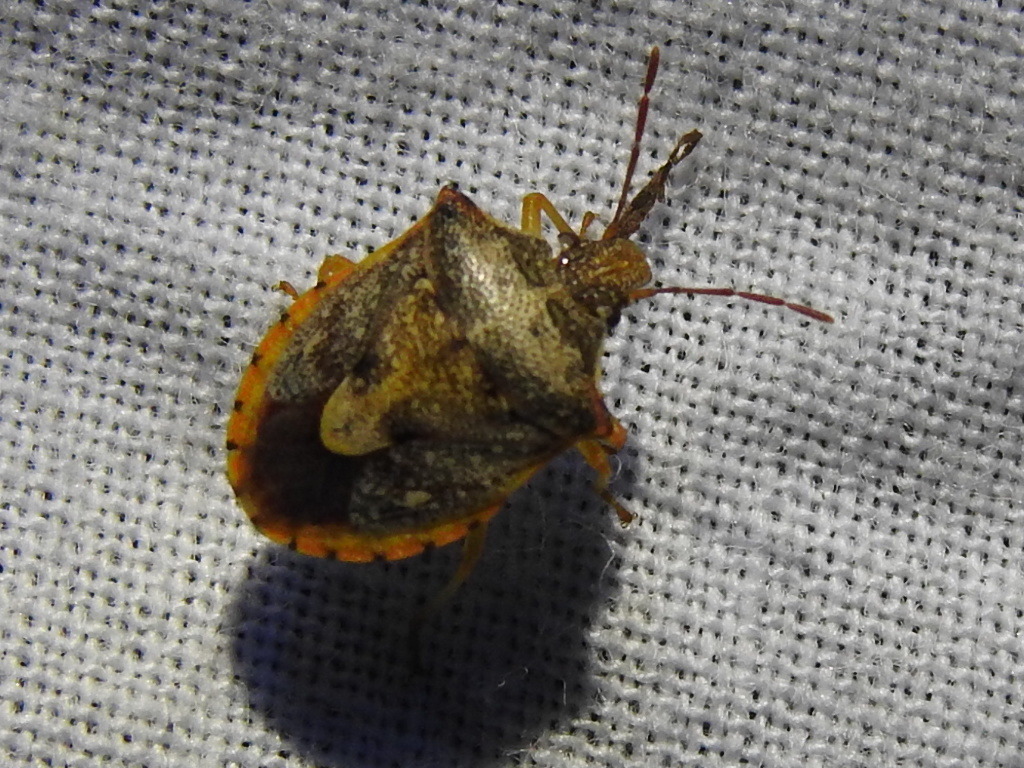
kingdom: Animalia
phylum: Arthropoda
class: Insecta
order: Hemiptera
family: Pentatomidae
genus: Dendrocoris
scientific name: Dendrocoris humeralis
